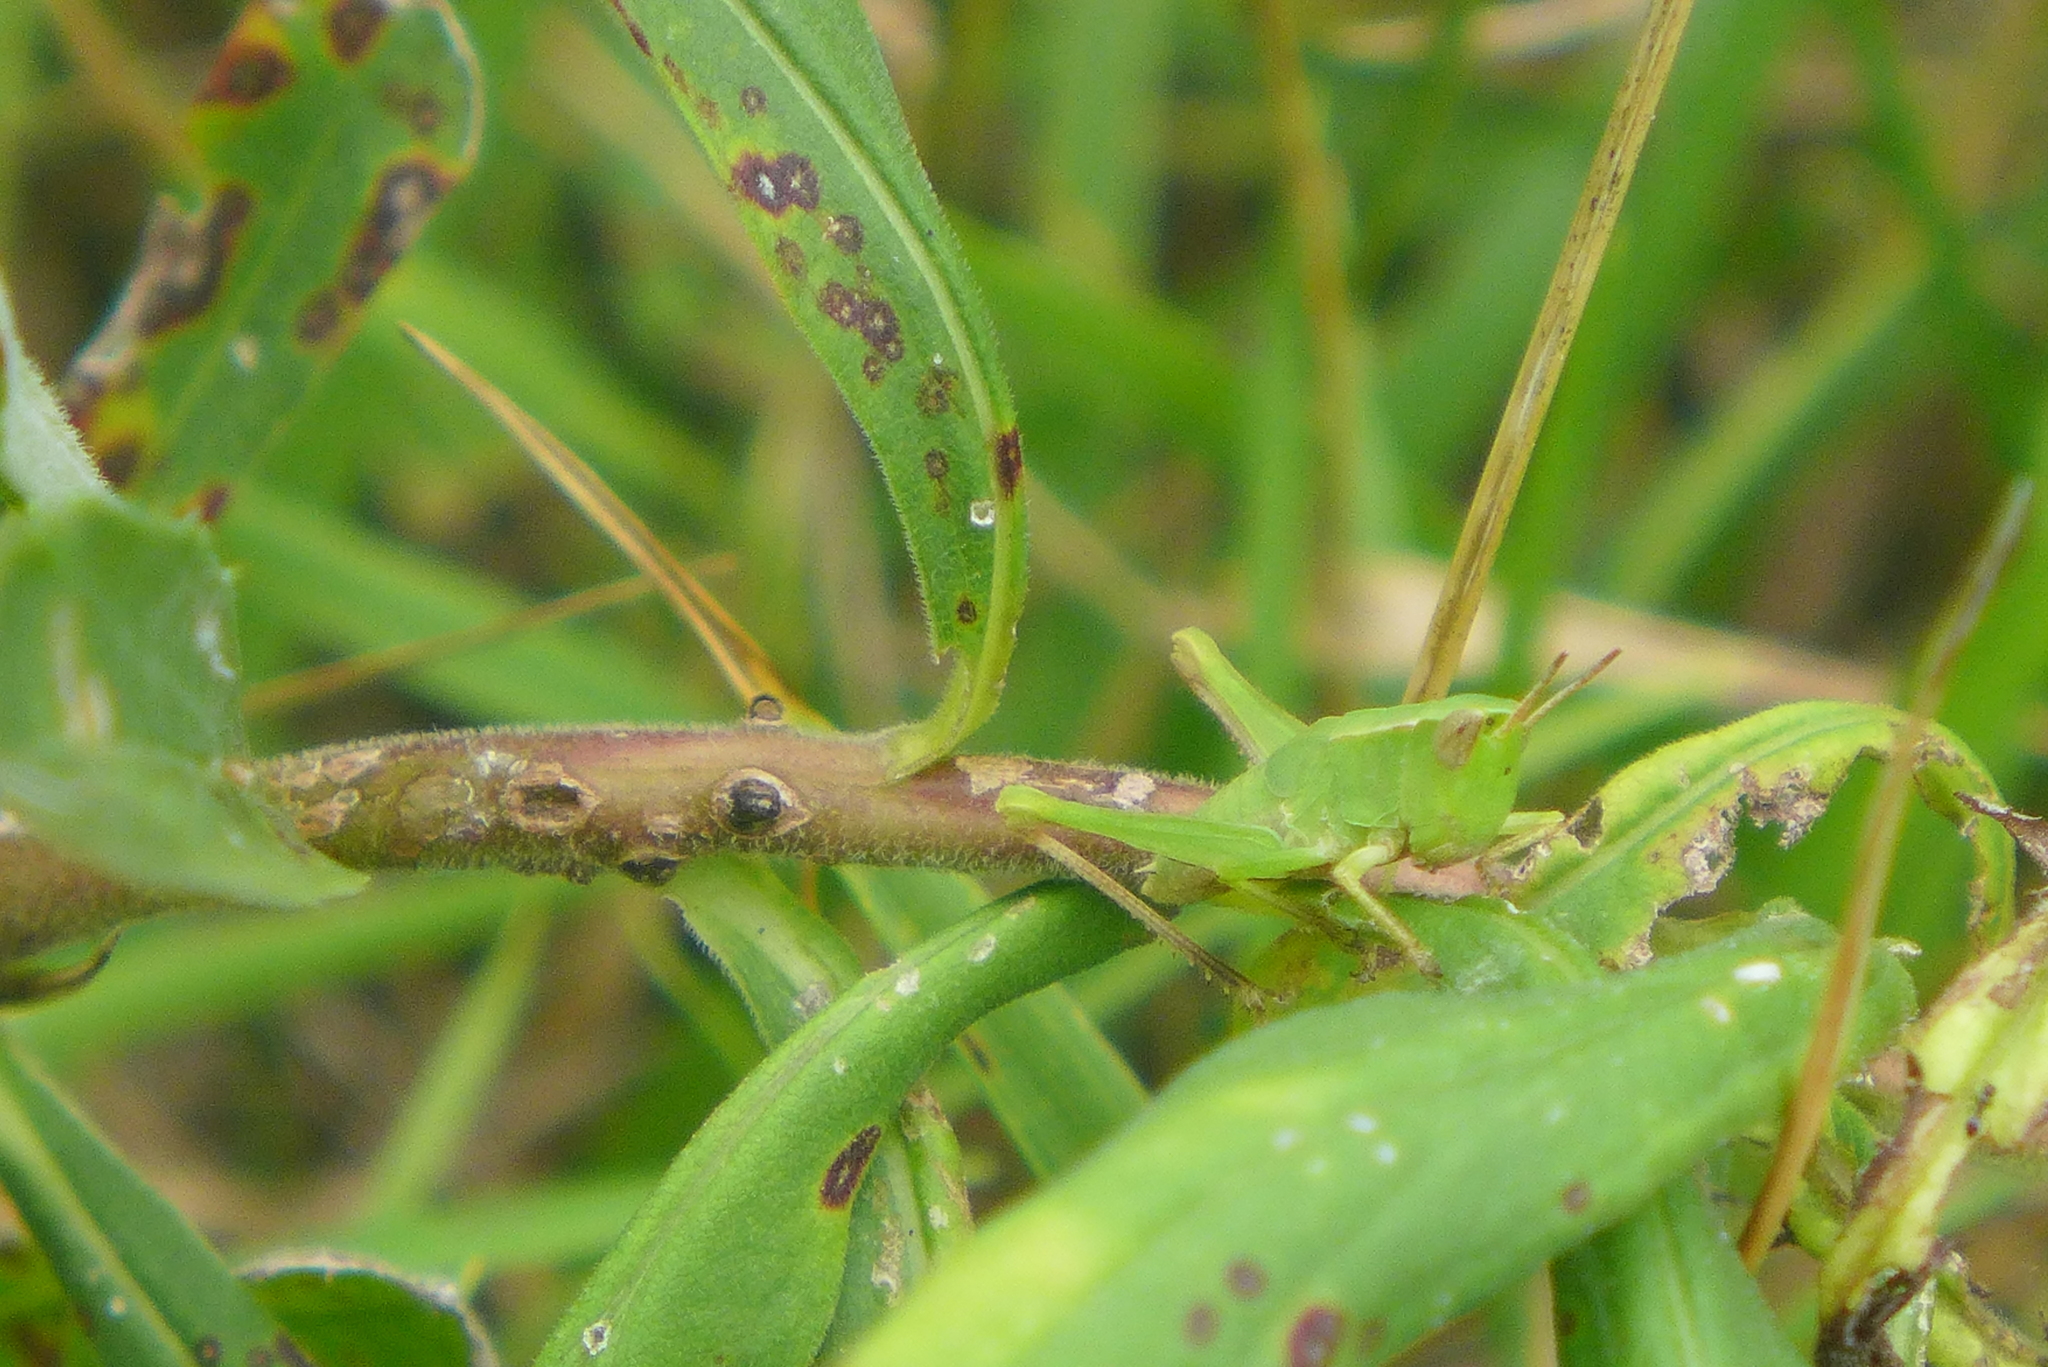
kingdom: Animalia
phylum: Arthropoda
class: Insecta
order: Orthoptera
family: Acrididae
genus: Dichromorpha
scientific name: Dichromorpha viridis
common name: Short-winged green grasshopper
